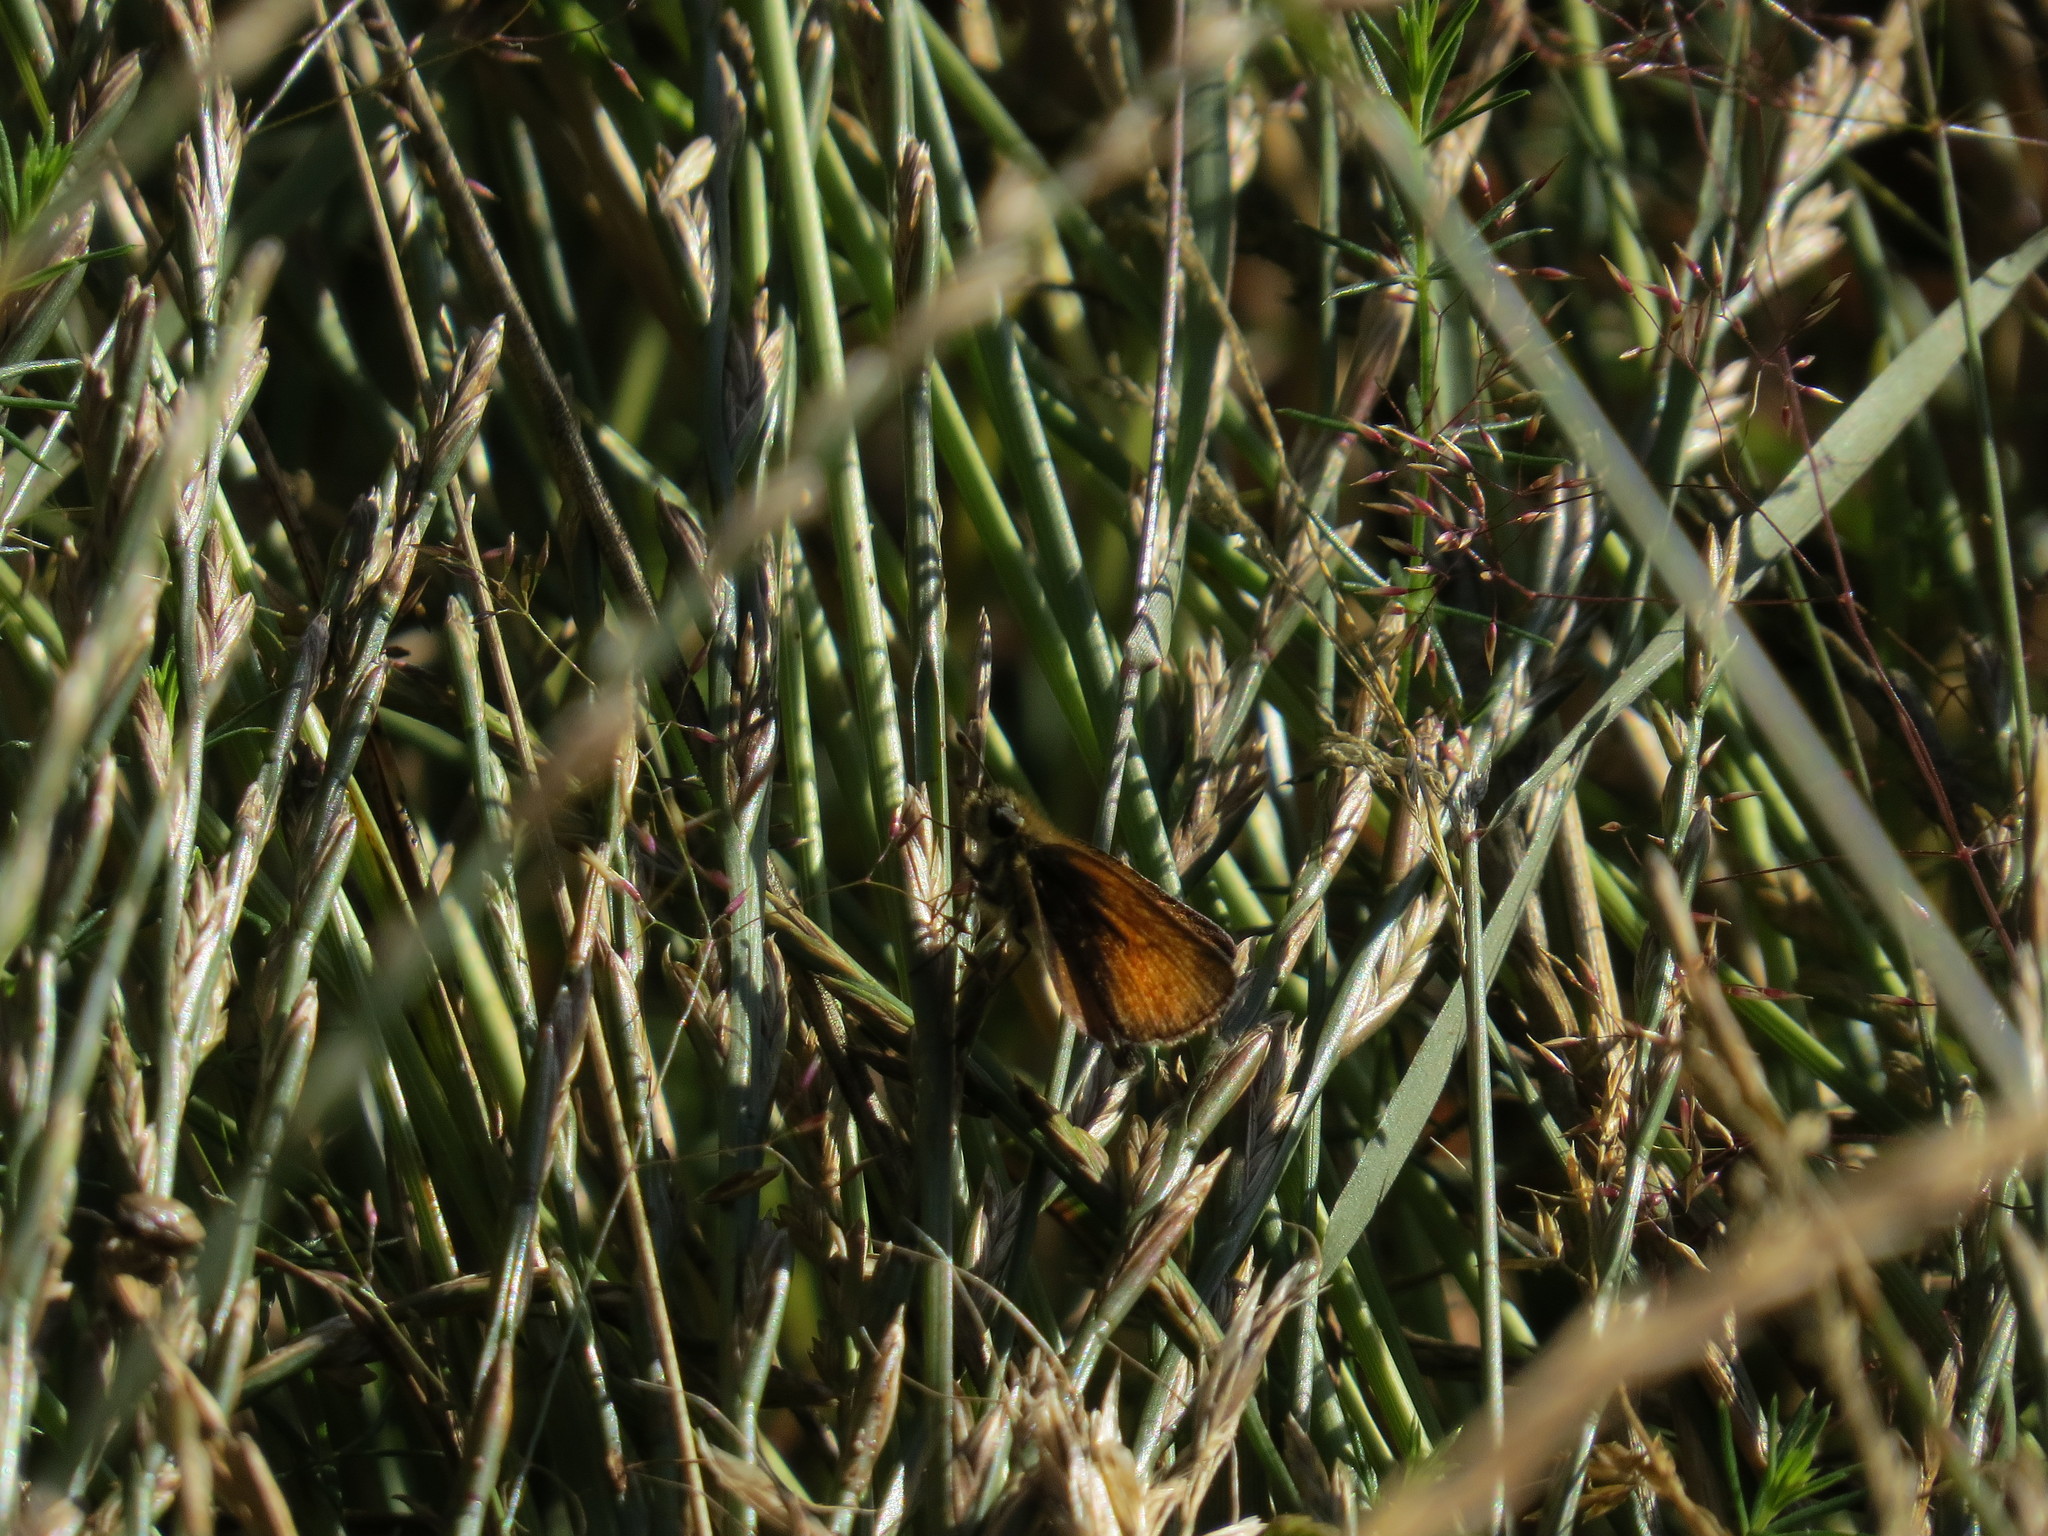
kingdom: Animalia
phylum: Arthropoda
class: Insecta
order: Lepidoptera
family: Hesperiidae
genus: Thymelicus
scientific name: Thymelicus lineola
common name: Essex skipper
